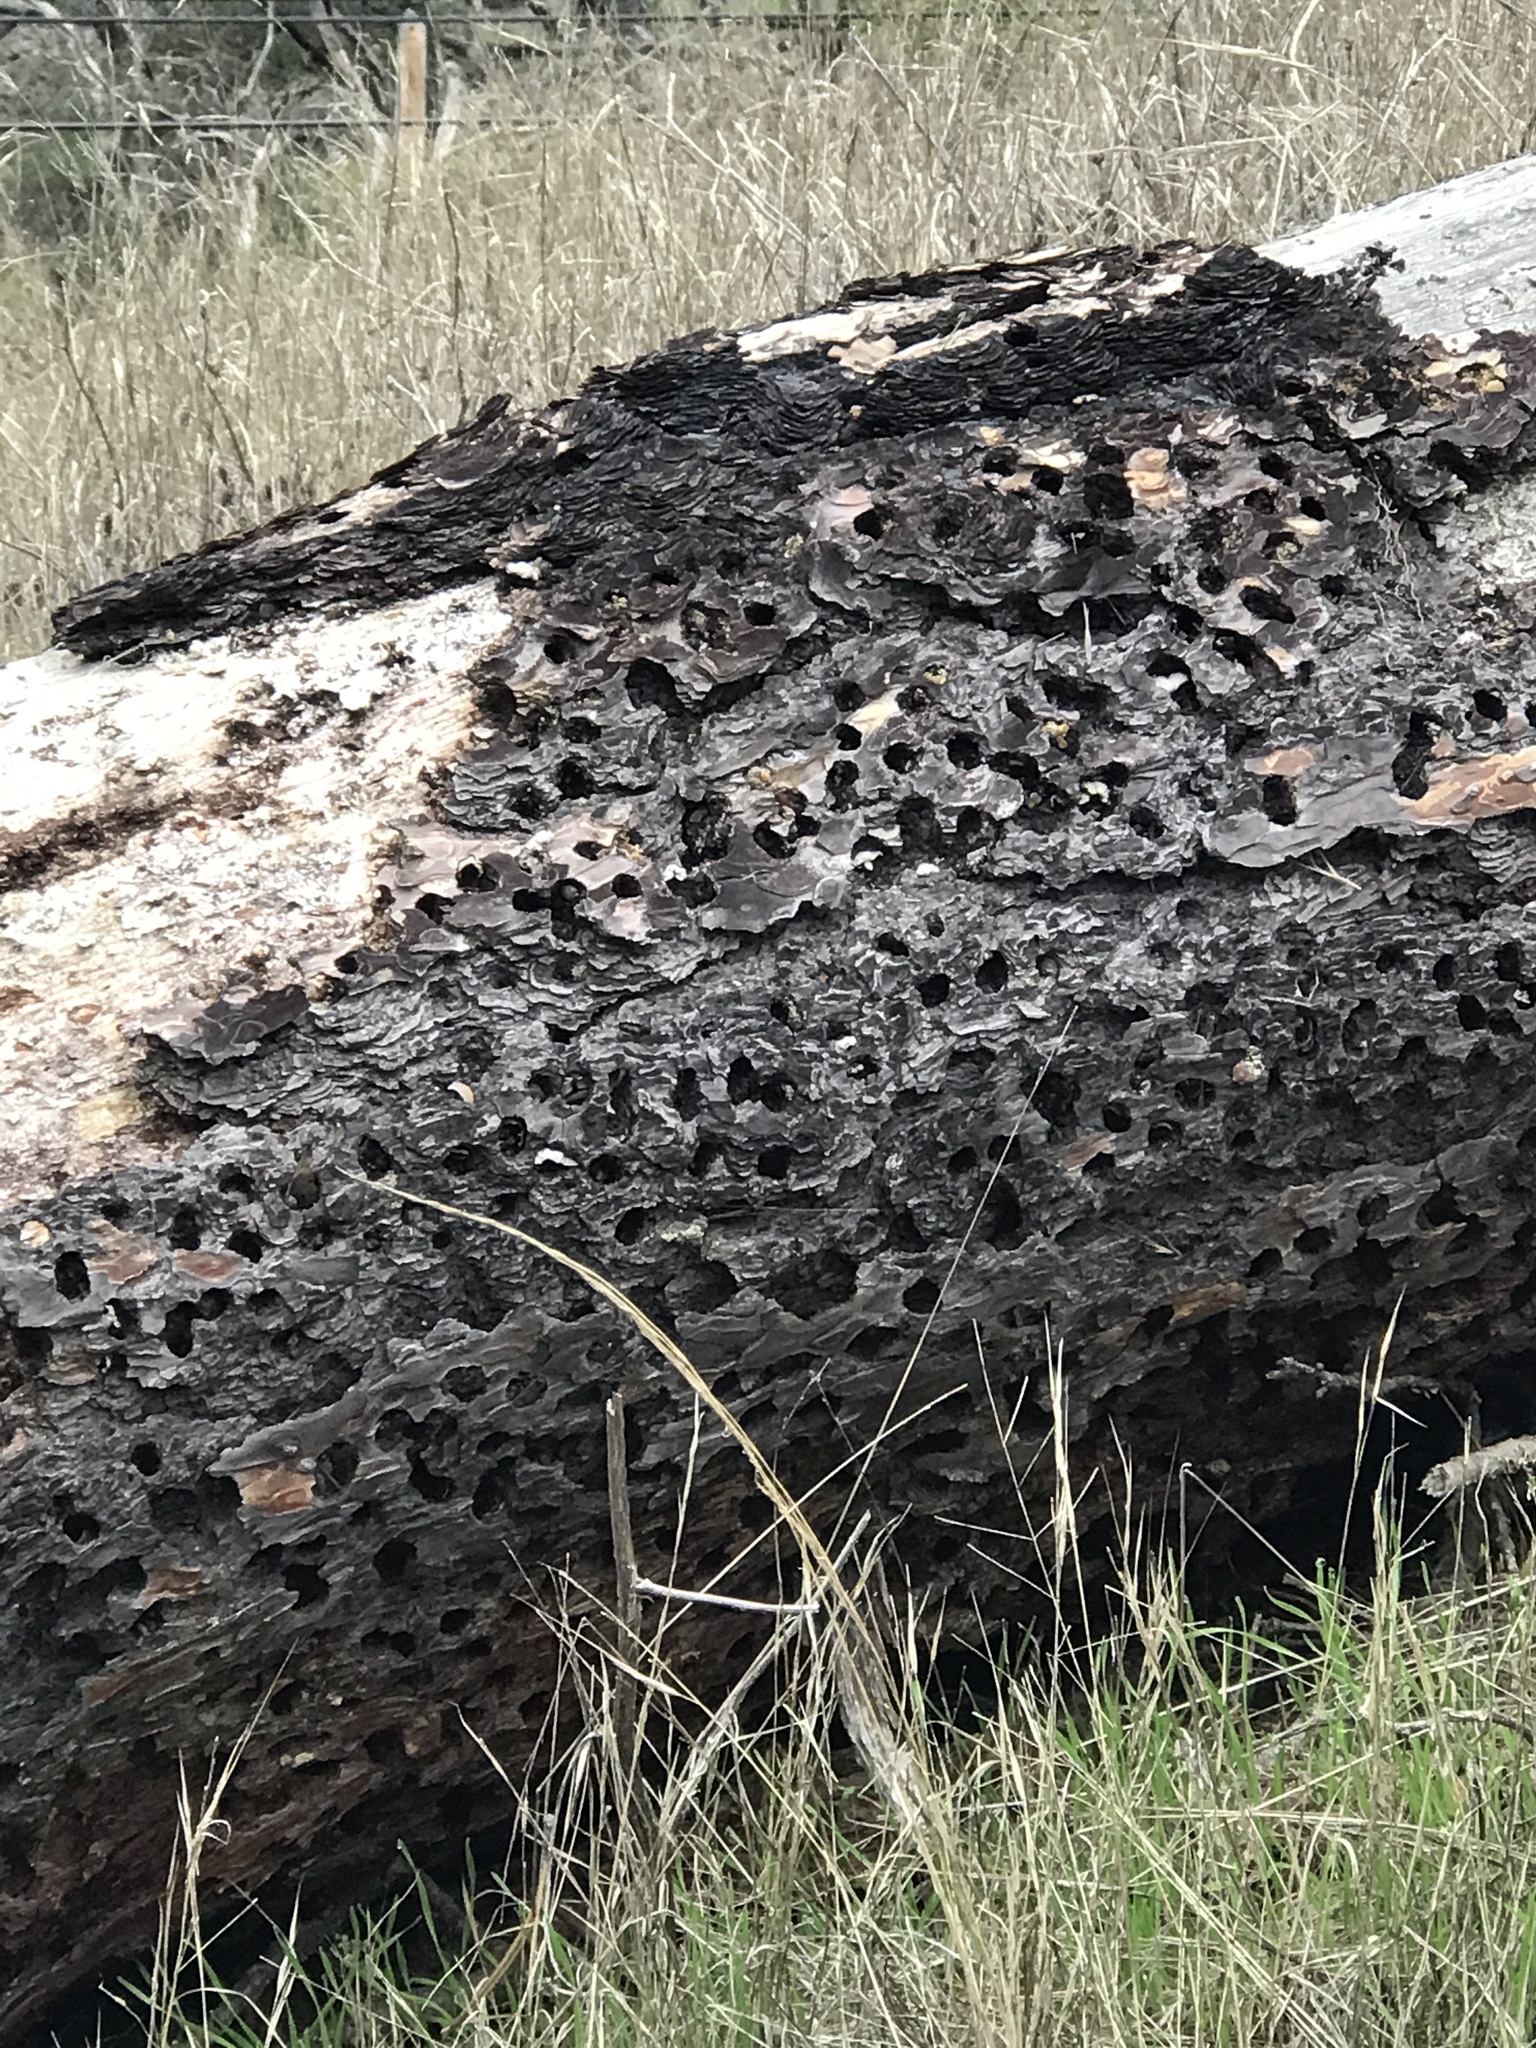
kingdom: Animalia
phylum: Chordata
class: Aves
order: Piciformes
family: Picidae
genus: Melanerpes
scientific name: Melanerpes formicivorus
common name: Acorn woodpecker
